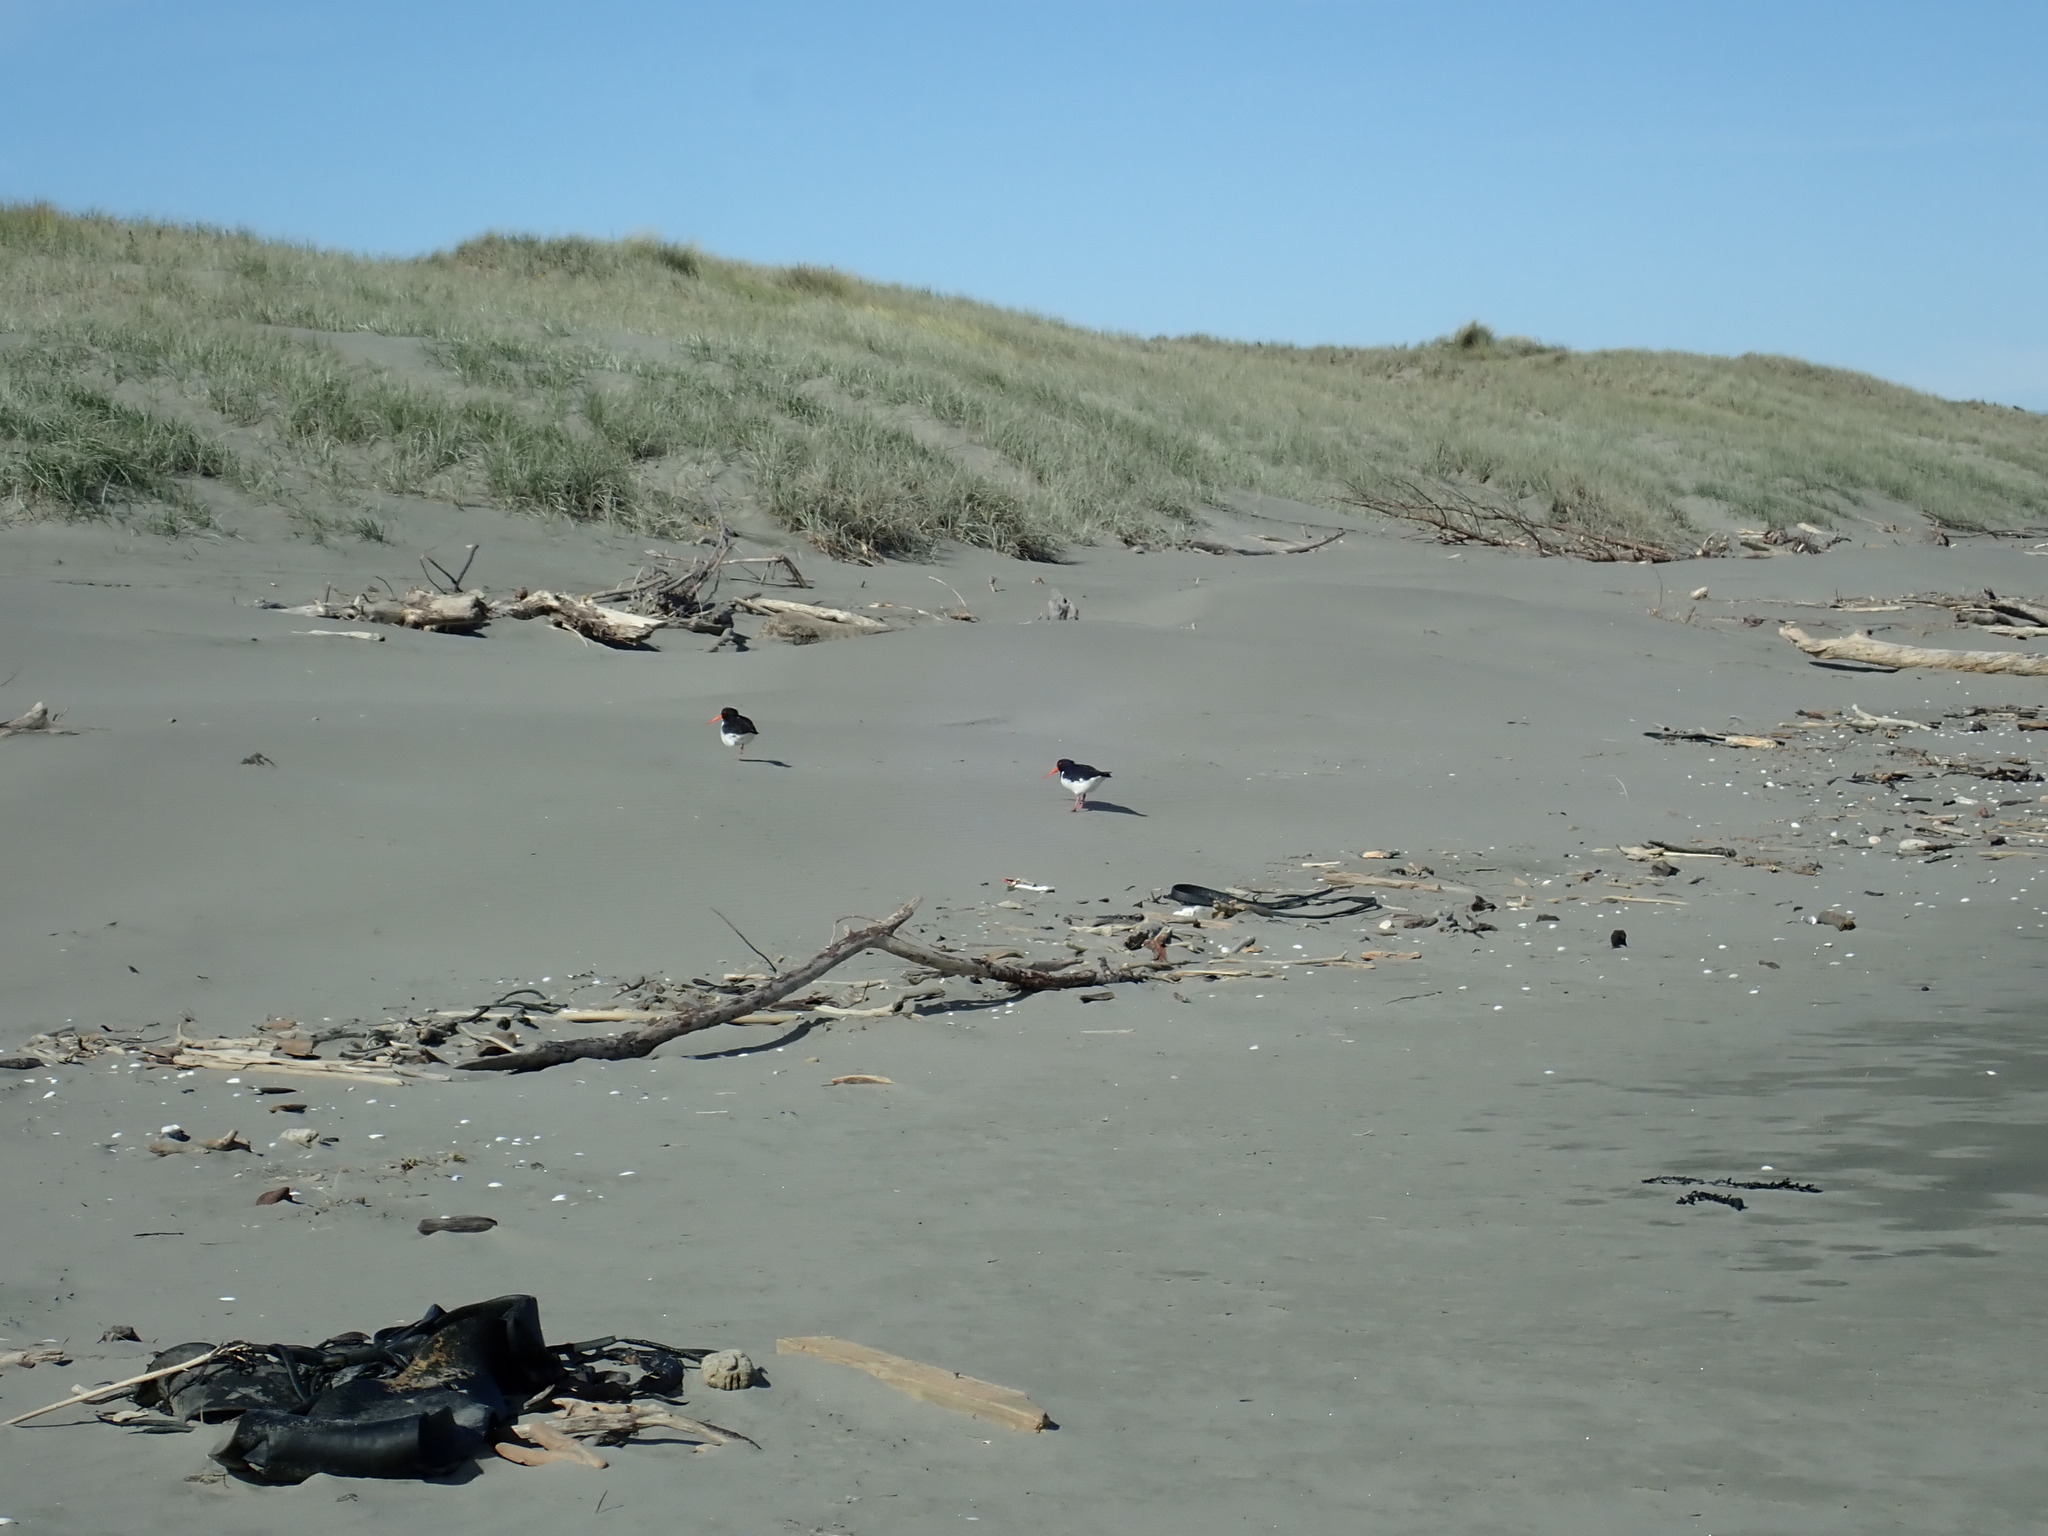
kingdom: Animalia
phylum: Chordata
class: Aves
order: Charadriiformes
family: Haematopodidae
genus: Haematopus
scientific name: Haematopus finschi
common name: South island oystercatcher
